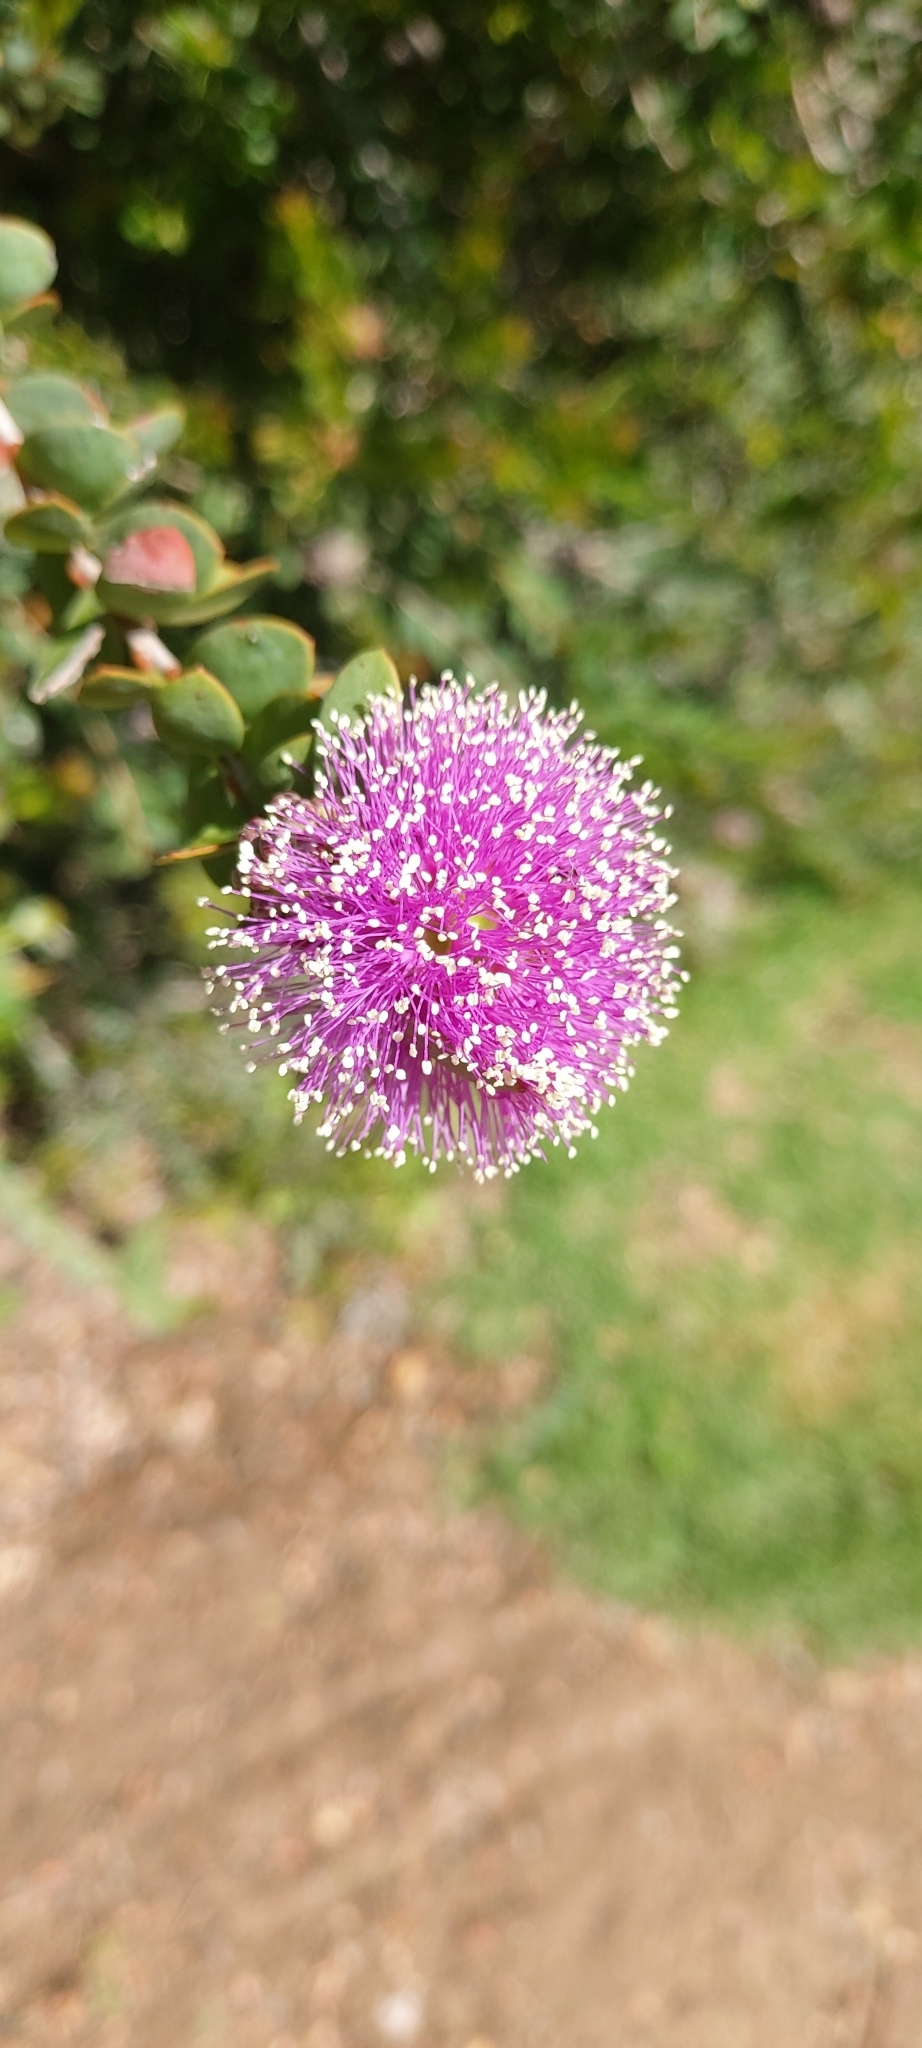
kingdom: Plantae
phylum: Tracheophyta
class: Magnoliopsida
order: Myrtales
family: Myrtaceae
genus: Melaleuca
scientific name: Melaleuca nesophila
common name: Mauve honey myrtle
